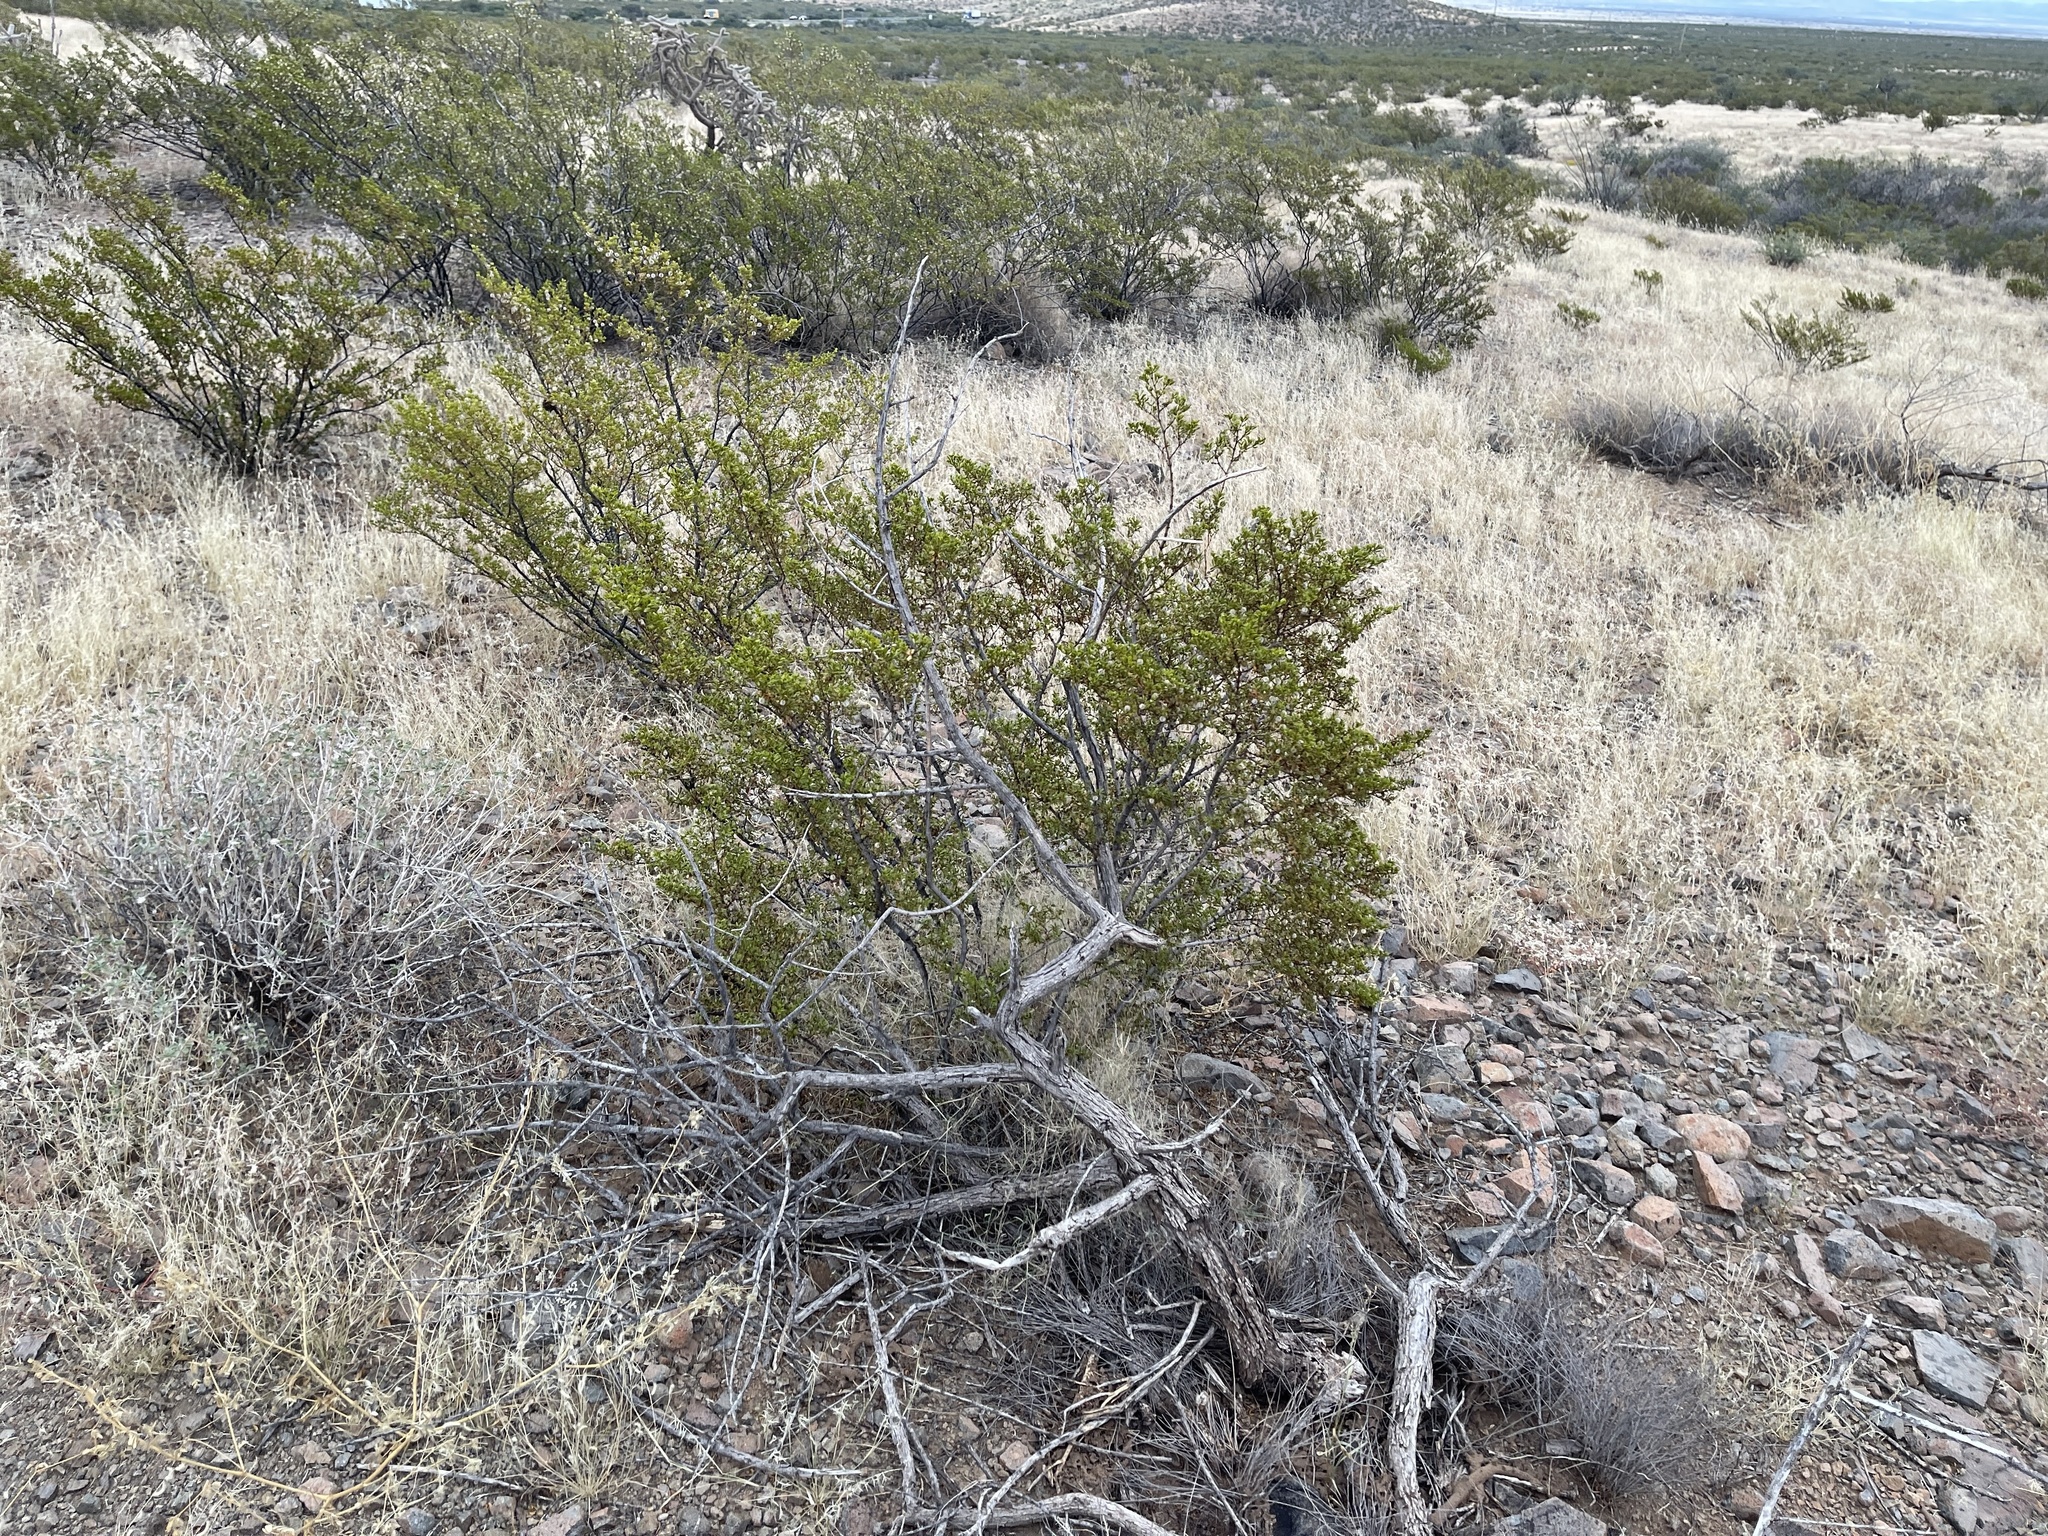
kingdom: Plantae
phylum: Tracheophyta
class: Magnoliopsida
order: Zygophyllales
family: Zygophyllaceae
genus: Larrea
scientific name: Larrea tridentata
